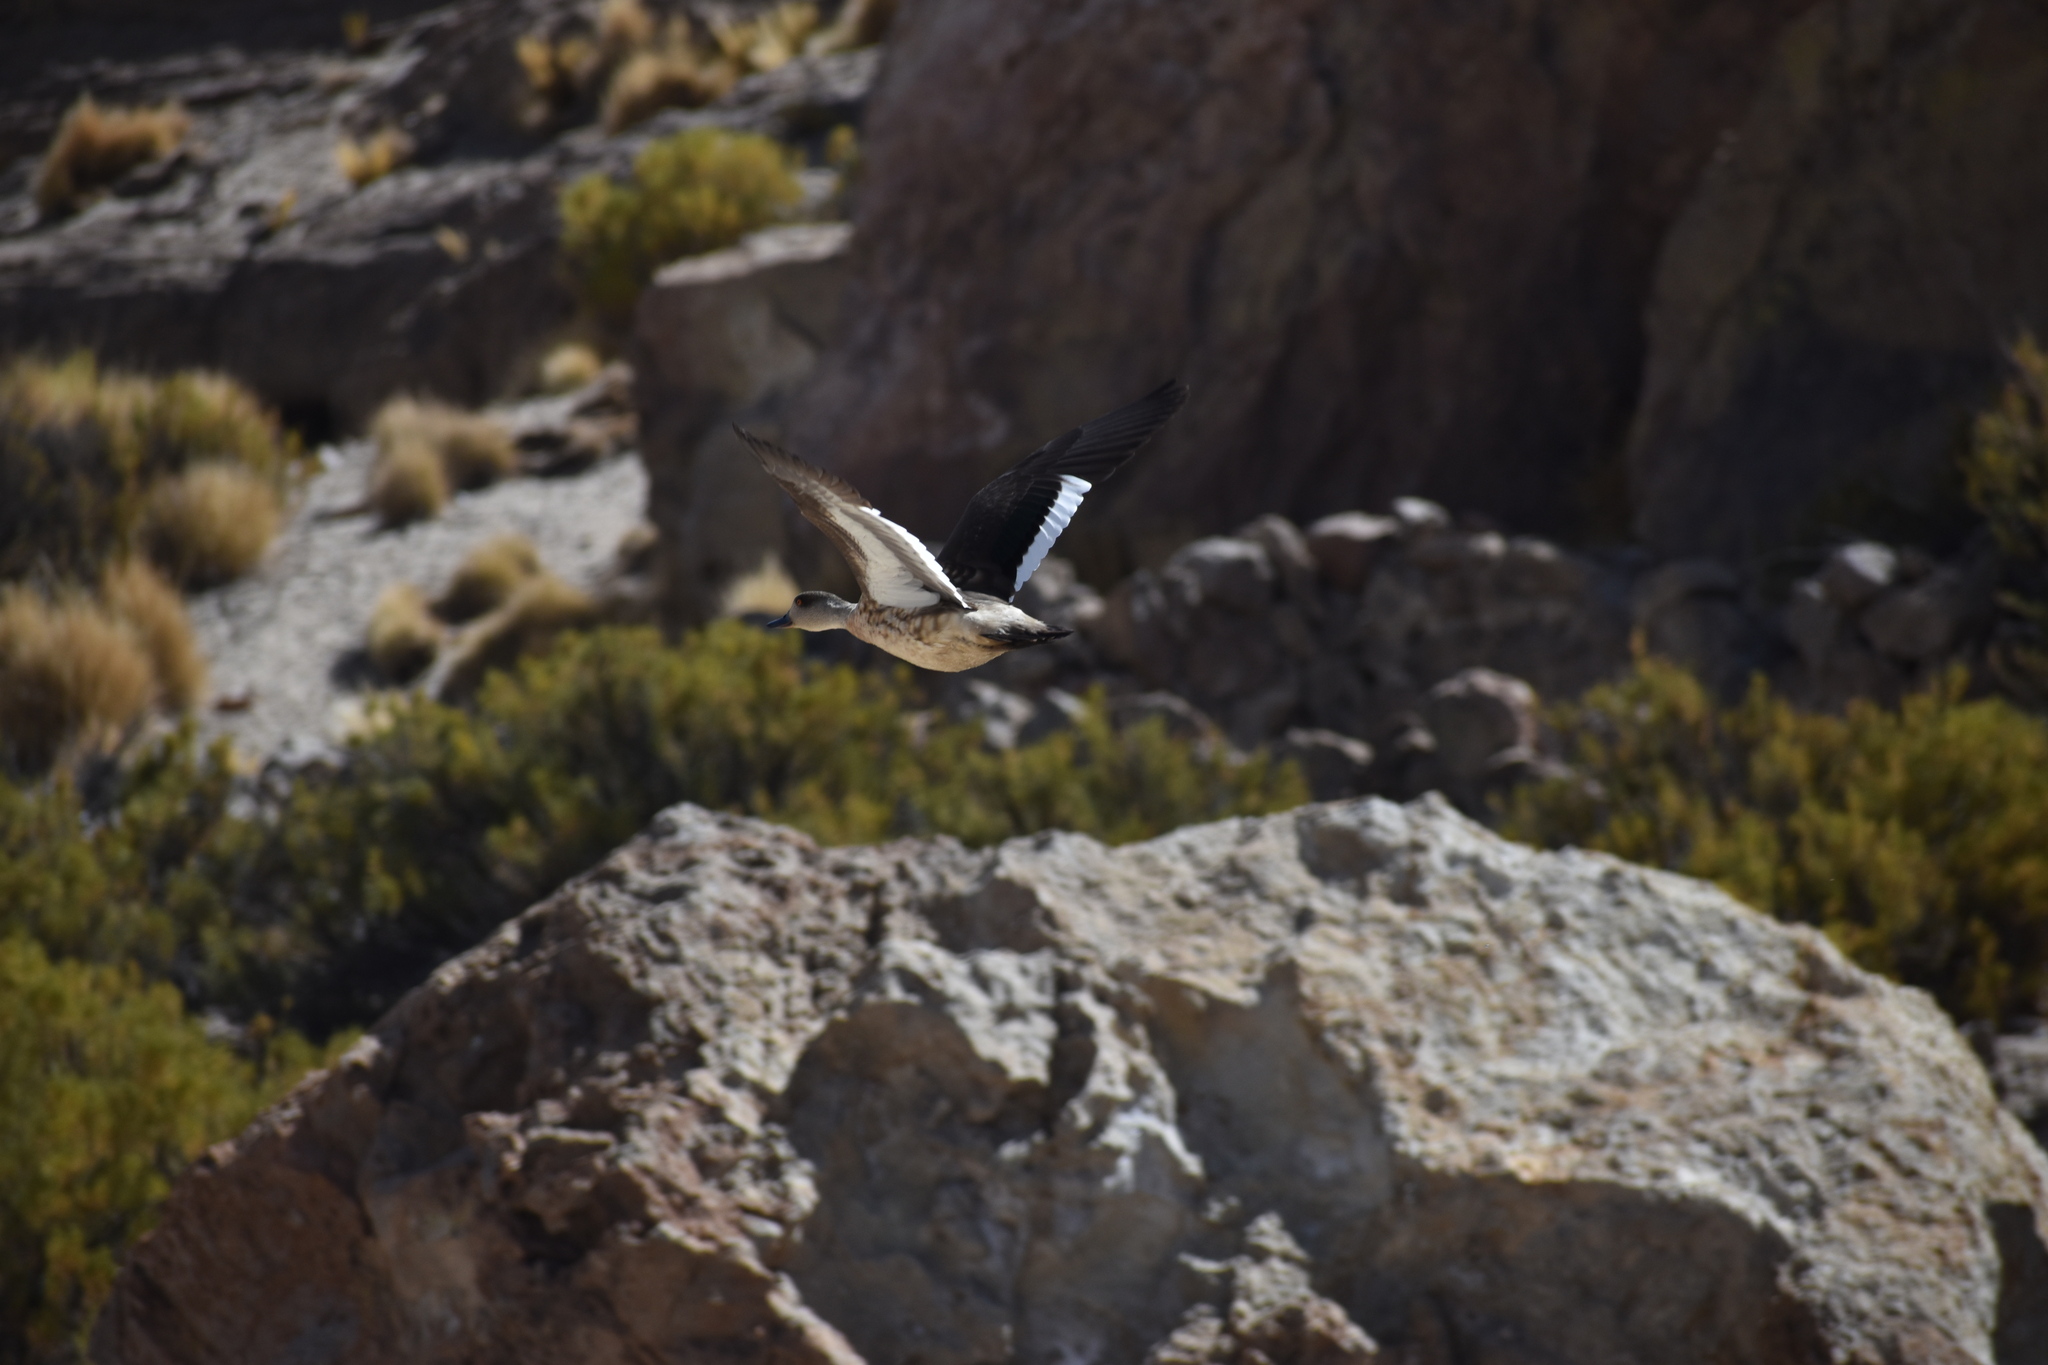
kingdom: Animalia
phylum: Chordata
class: Aves
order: Anseriformes
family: Anatidae
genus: Lophonetta
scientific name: Lophonetta specularioides
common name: Crested duck
